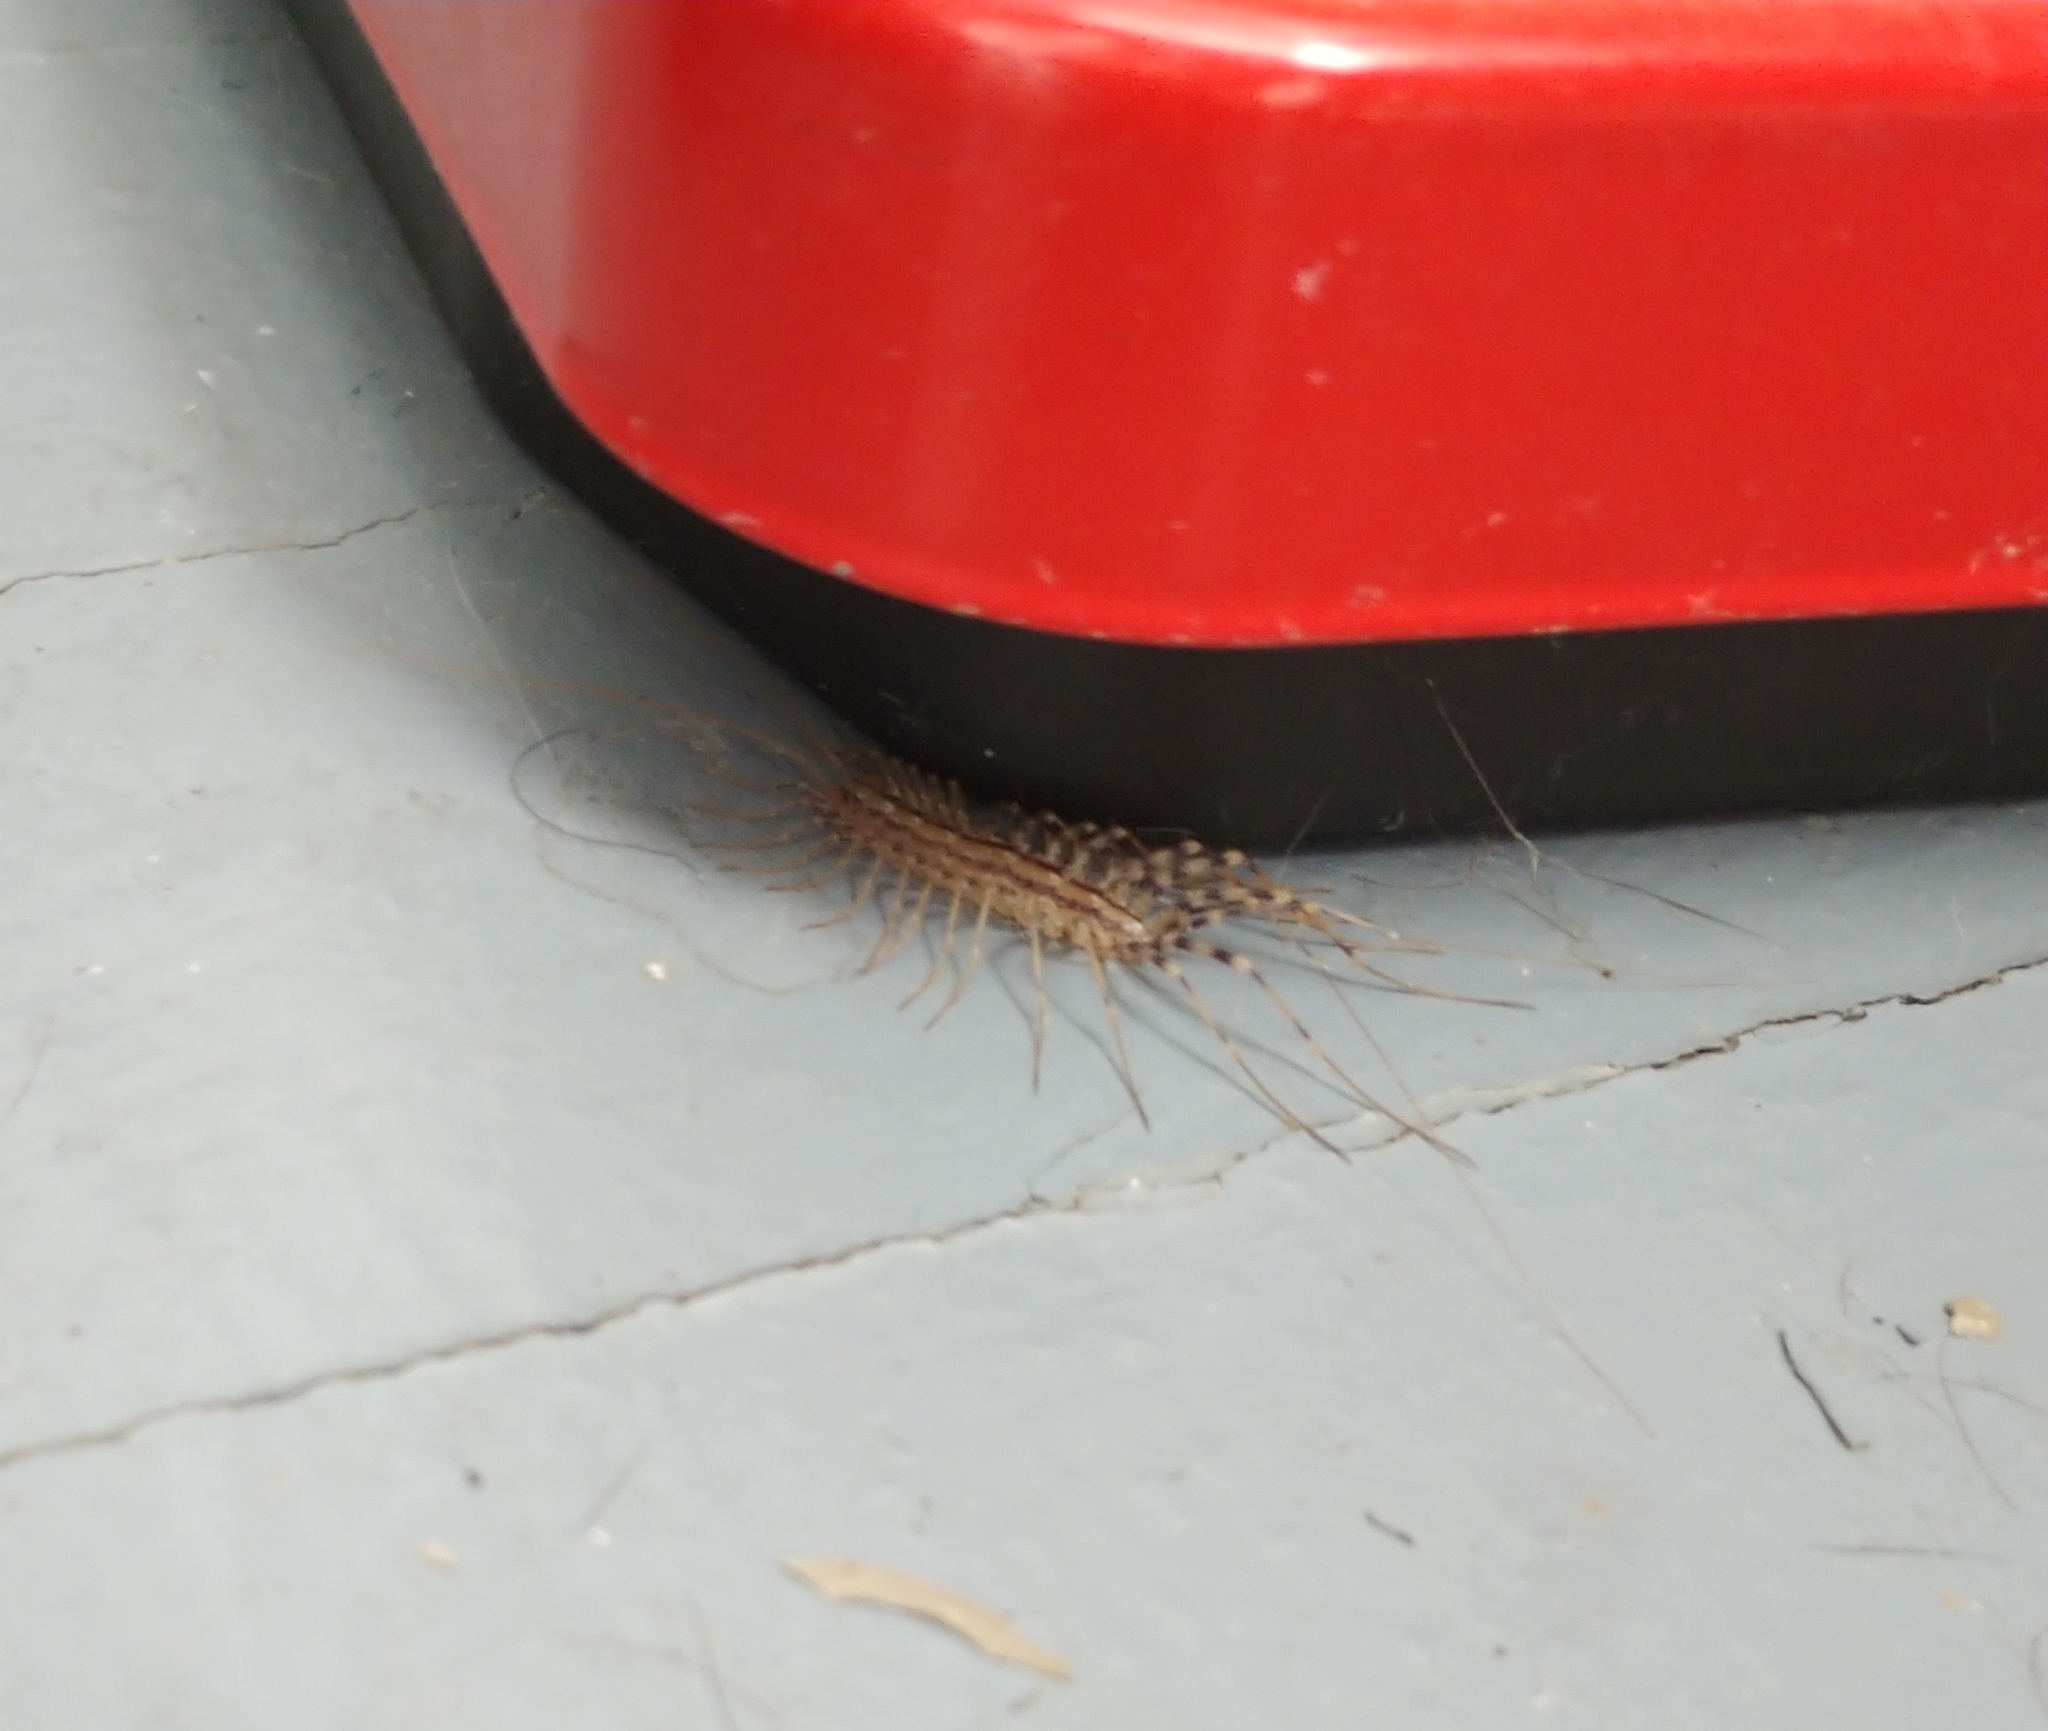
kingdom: Animalia
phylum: Arthropoda
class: Chilopoda
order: Scutigeromorpha
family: Scutigeridae
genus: Scutigera
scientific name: Scutigera coleoptrata
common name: House centipede
